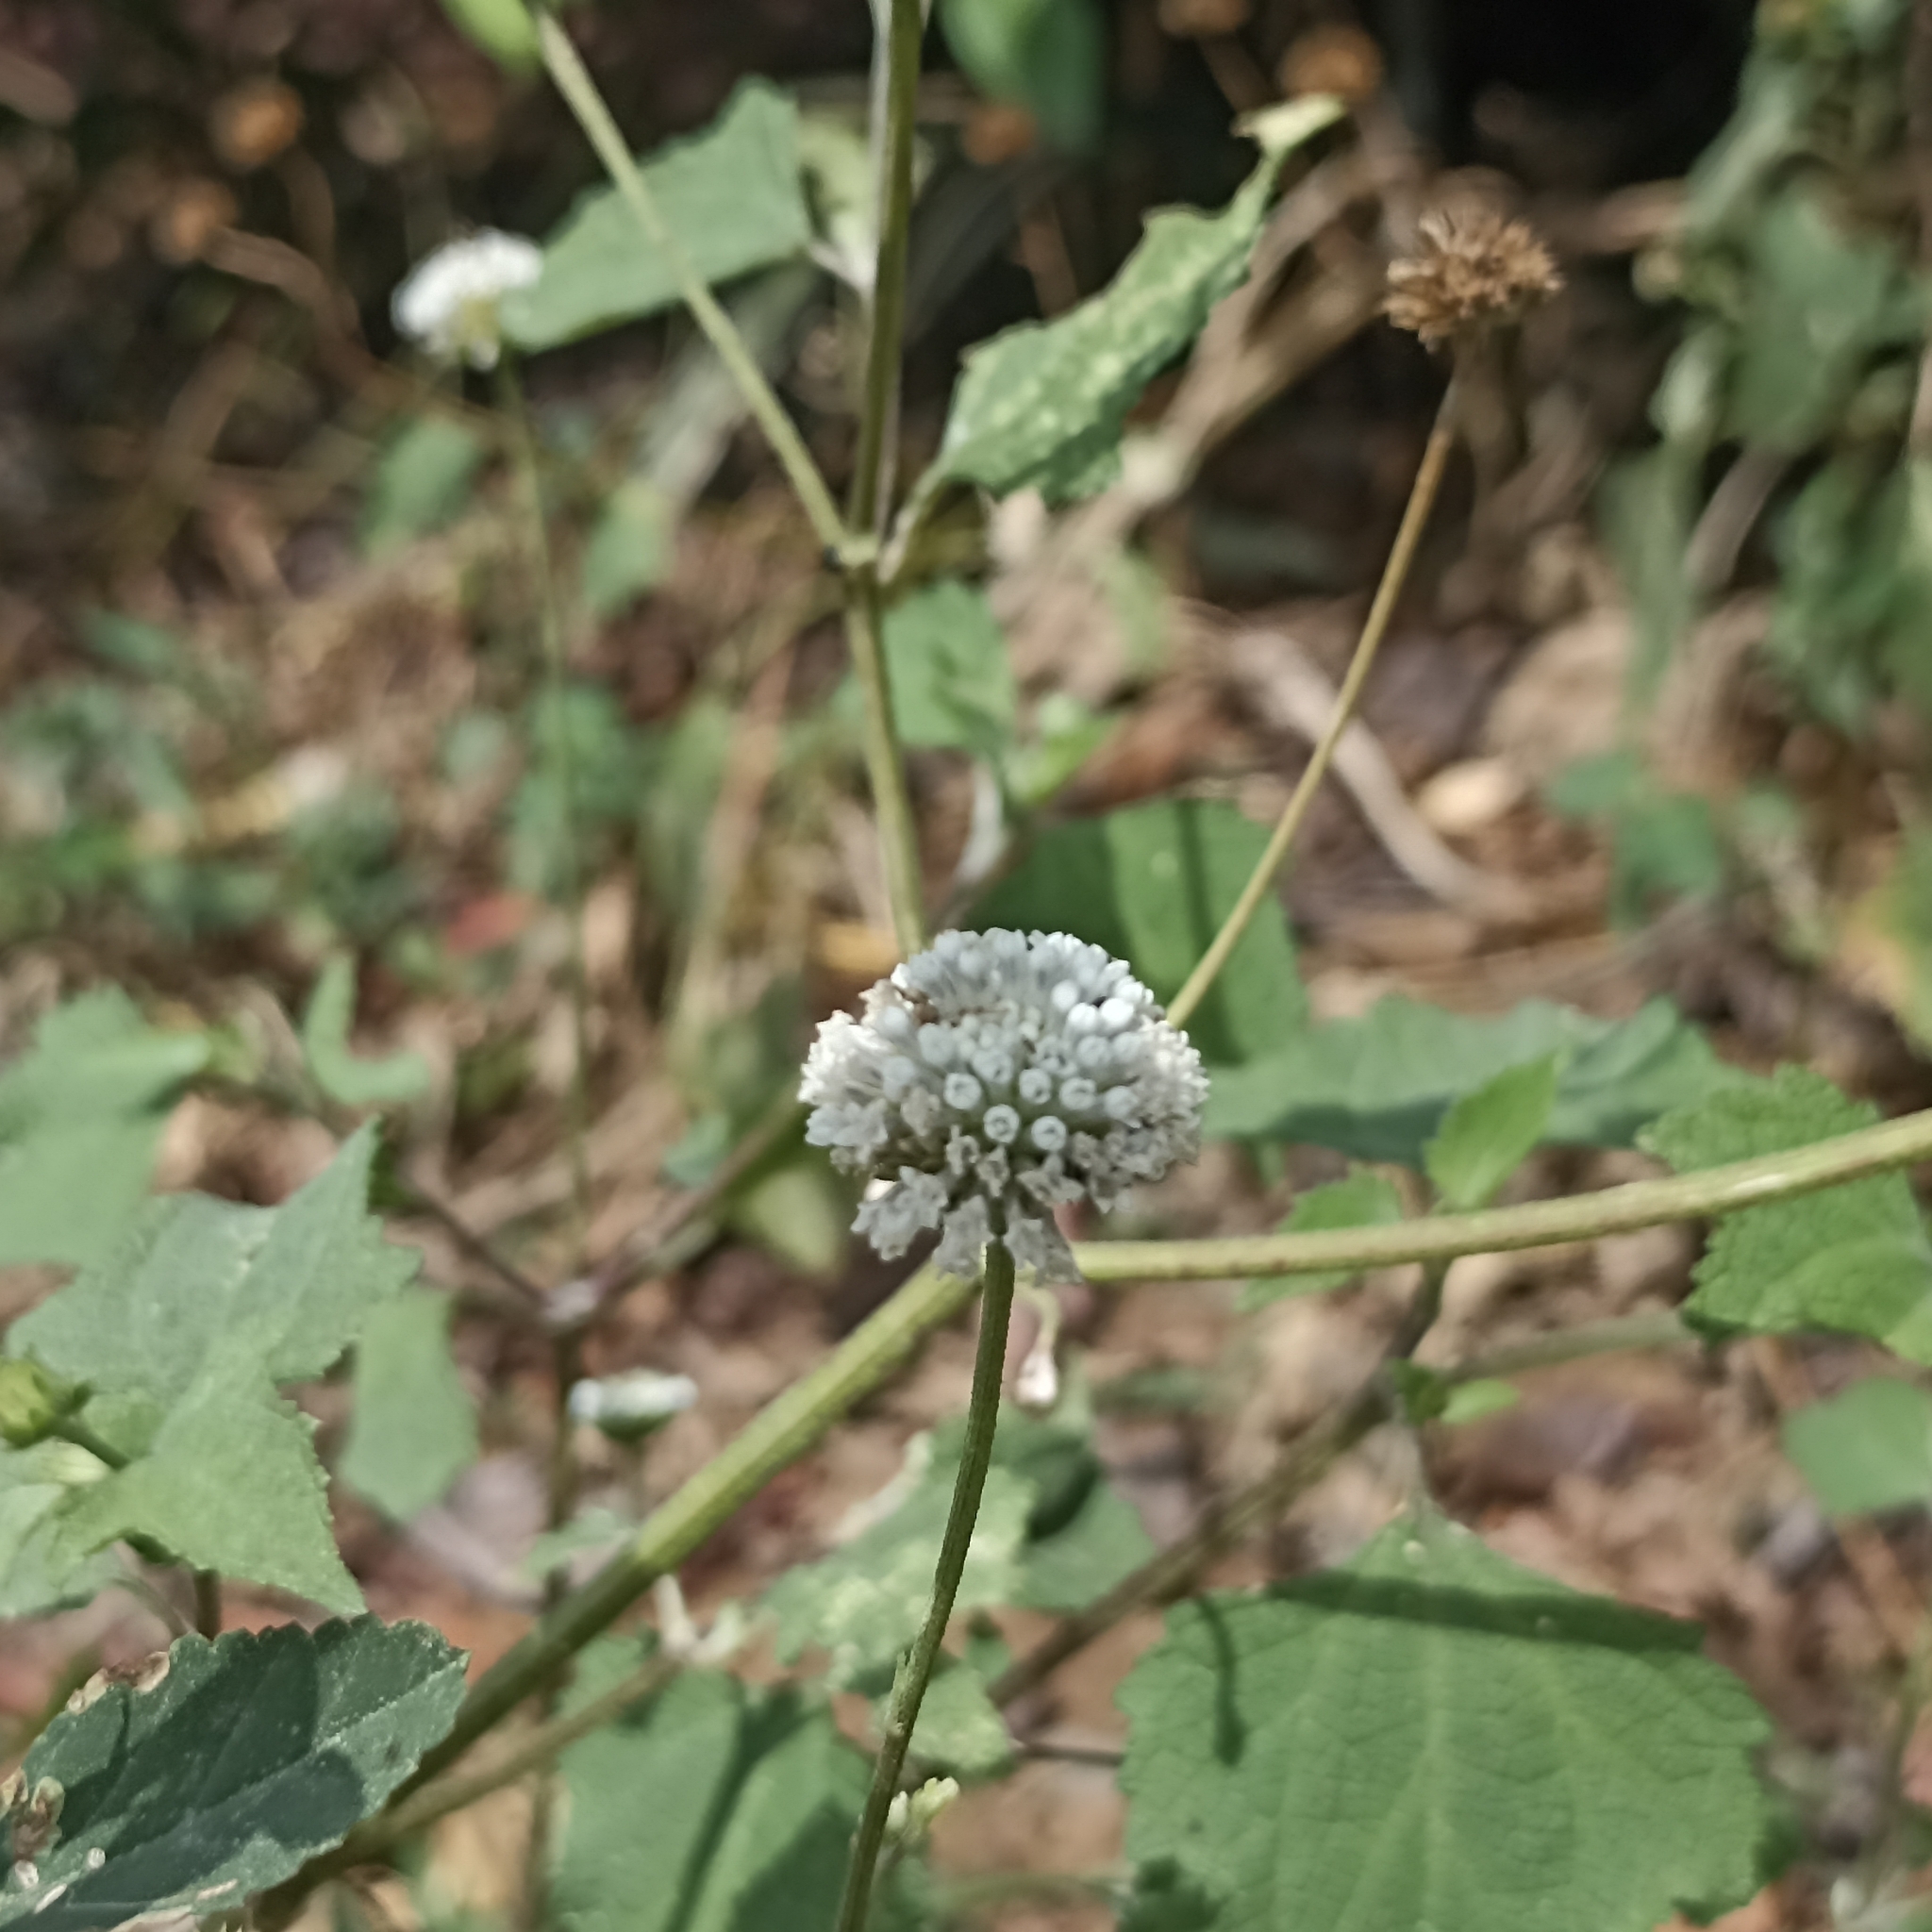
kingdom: Plantae
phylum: Tracheophyta
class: Magnoliopsida
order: Asterales
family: Asteraceae
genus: Melanthera
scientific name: Melanthera nivea
